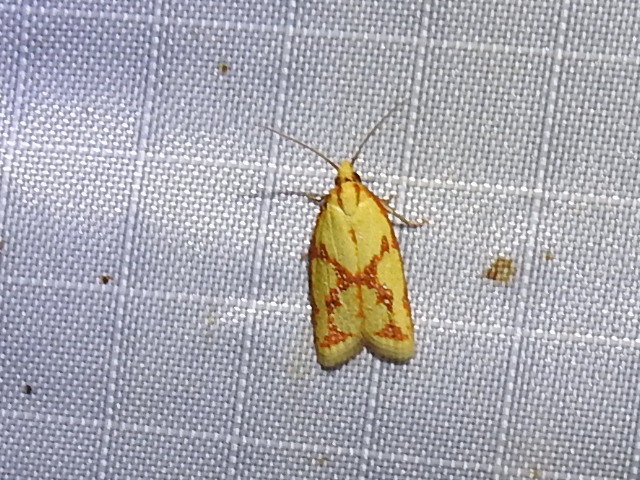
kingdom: Animalia
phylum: Arthropoda
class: Insecta
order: Lepidoptera
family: Tortricidae
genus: Sparganothis
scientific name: Sparganothis sulfureana
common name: Sparganothis fruitworm moth
